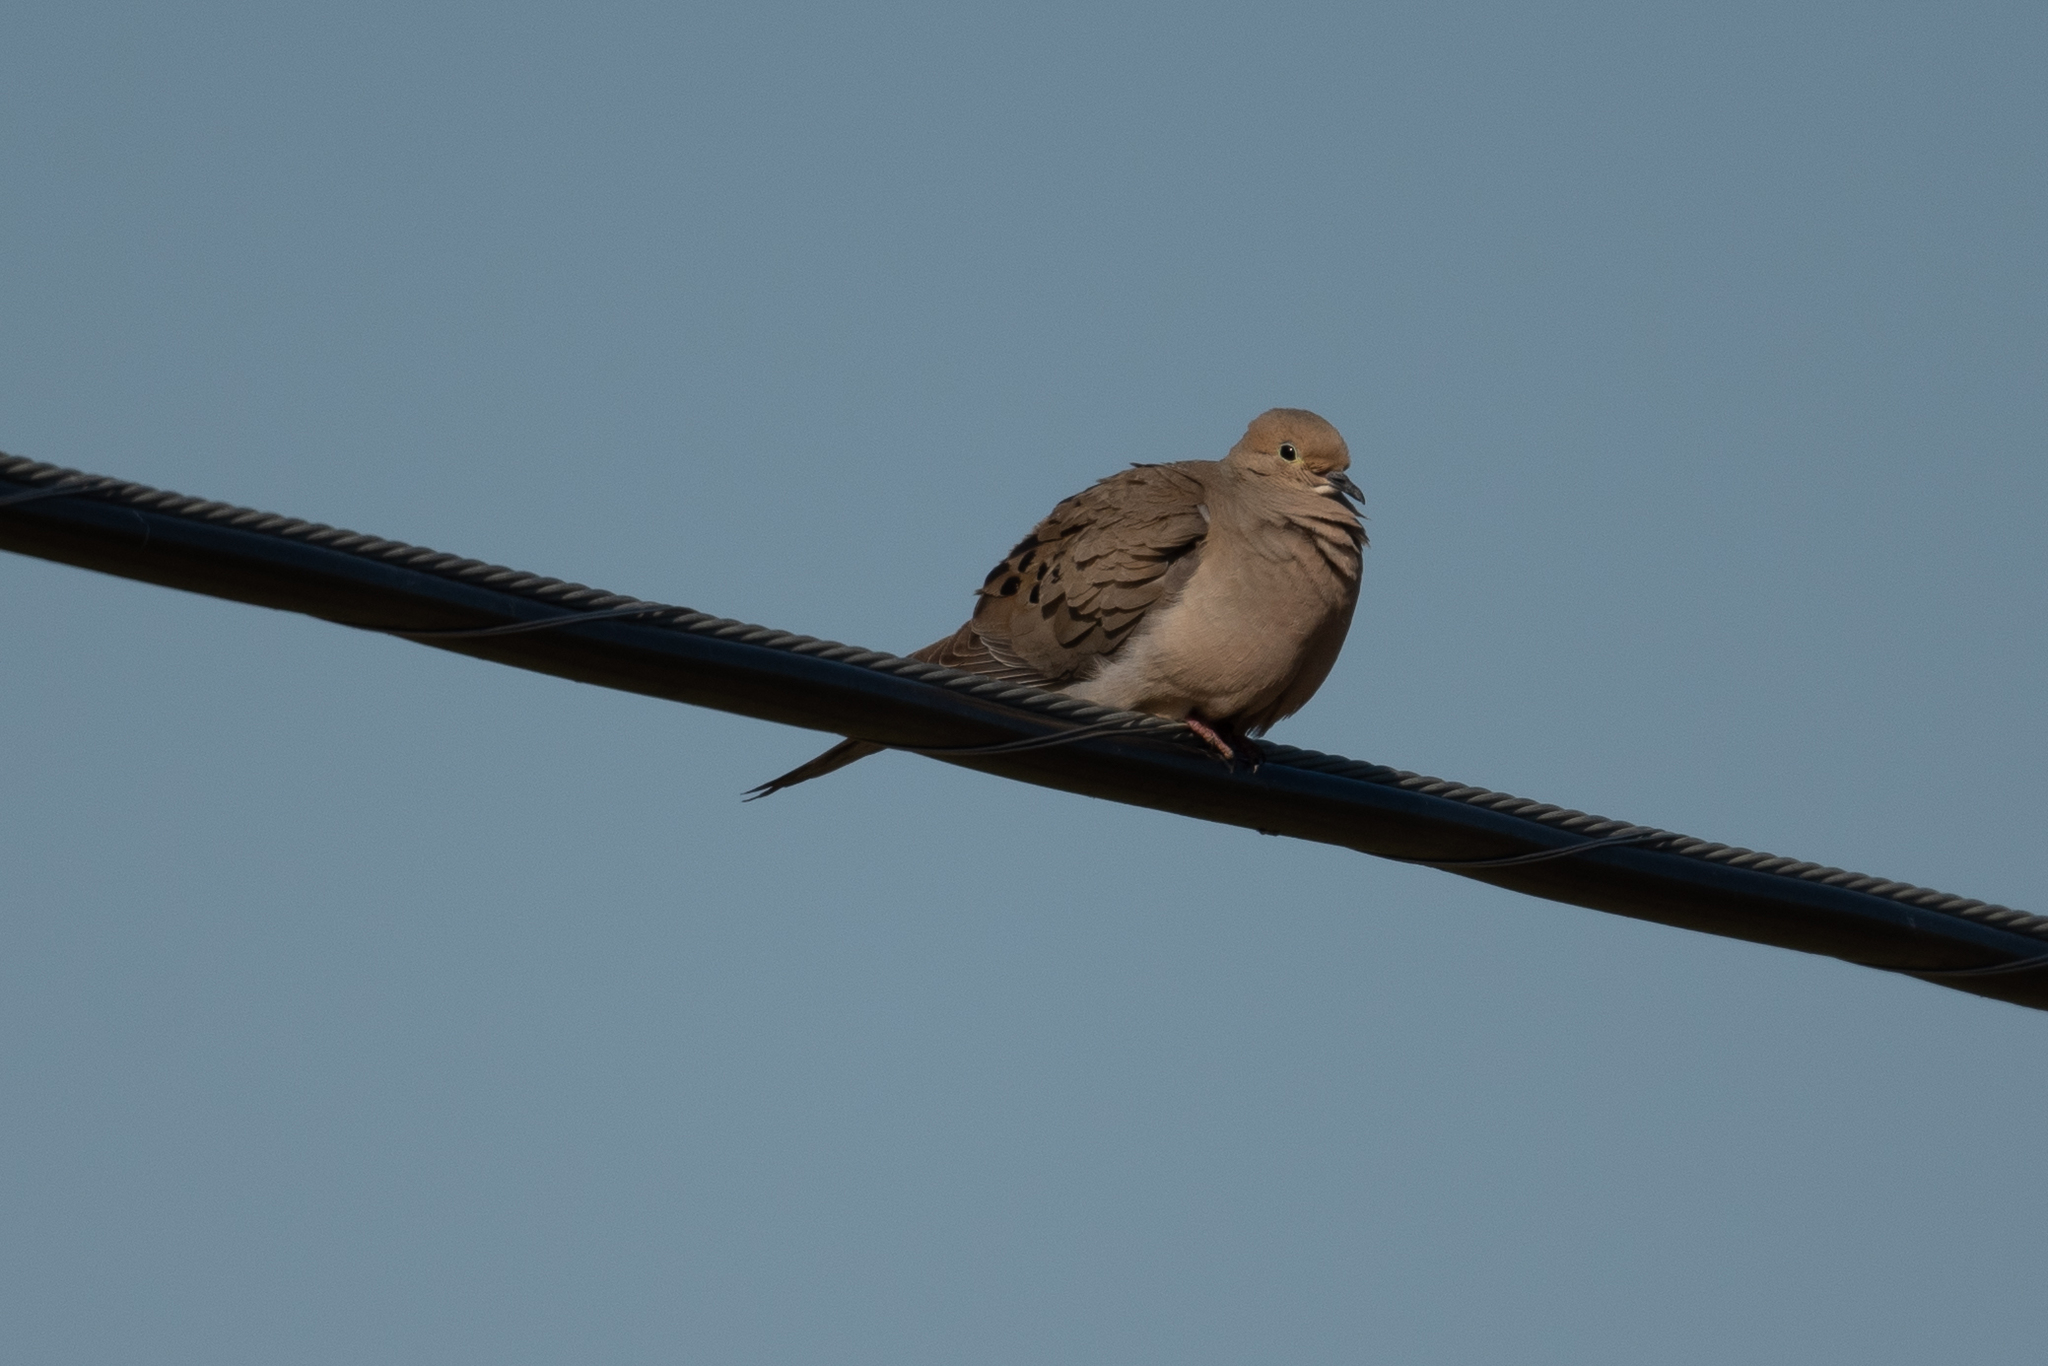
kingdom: Animalia
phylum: Chordata
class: Aves
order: Columbiformes
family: Columbidae
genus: Zenaida
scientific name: Zenaida macroura
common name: Mourning dove
